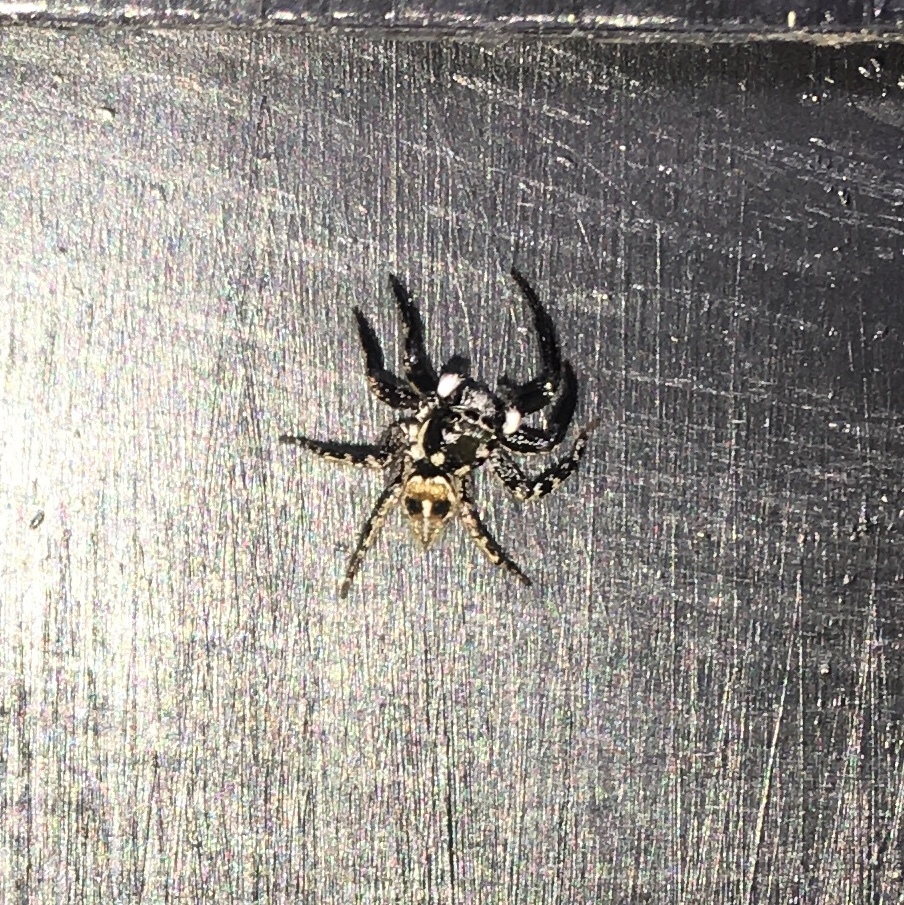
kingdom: Animalia
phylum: Arthropoda
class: Arachnida
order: Araneae
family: Salticidae
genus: Anasaitis
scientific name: Anasaitis canosa
